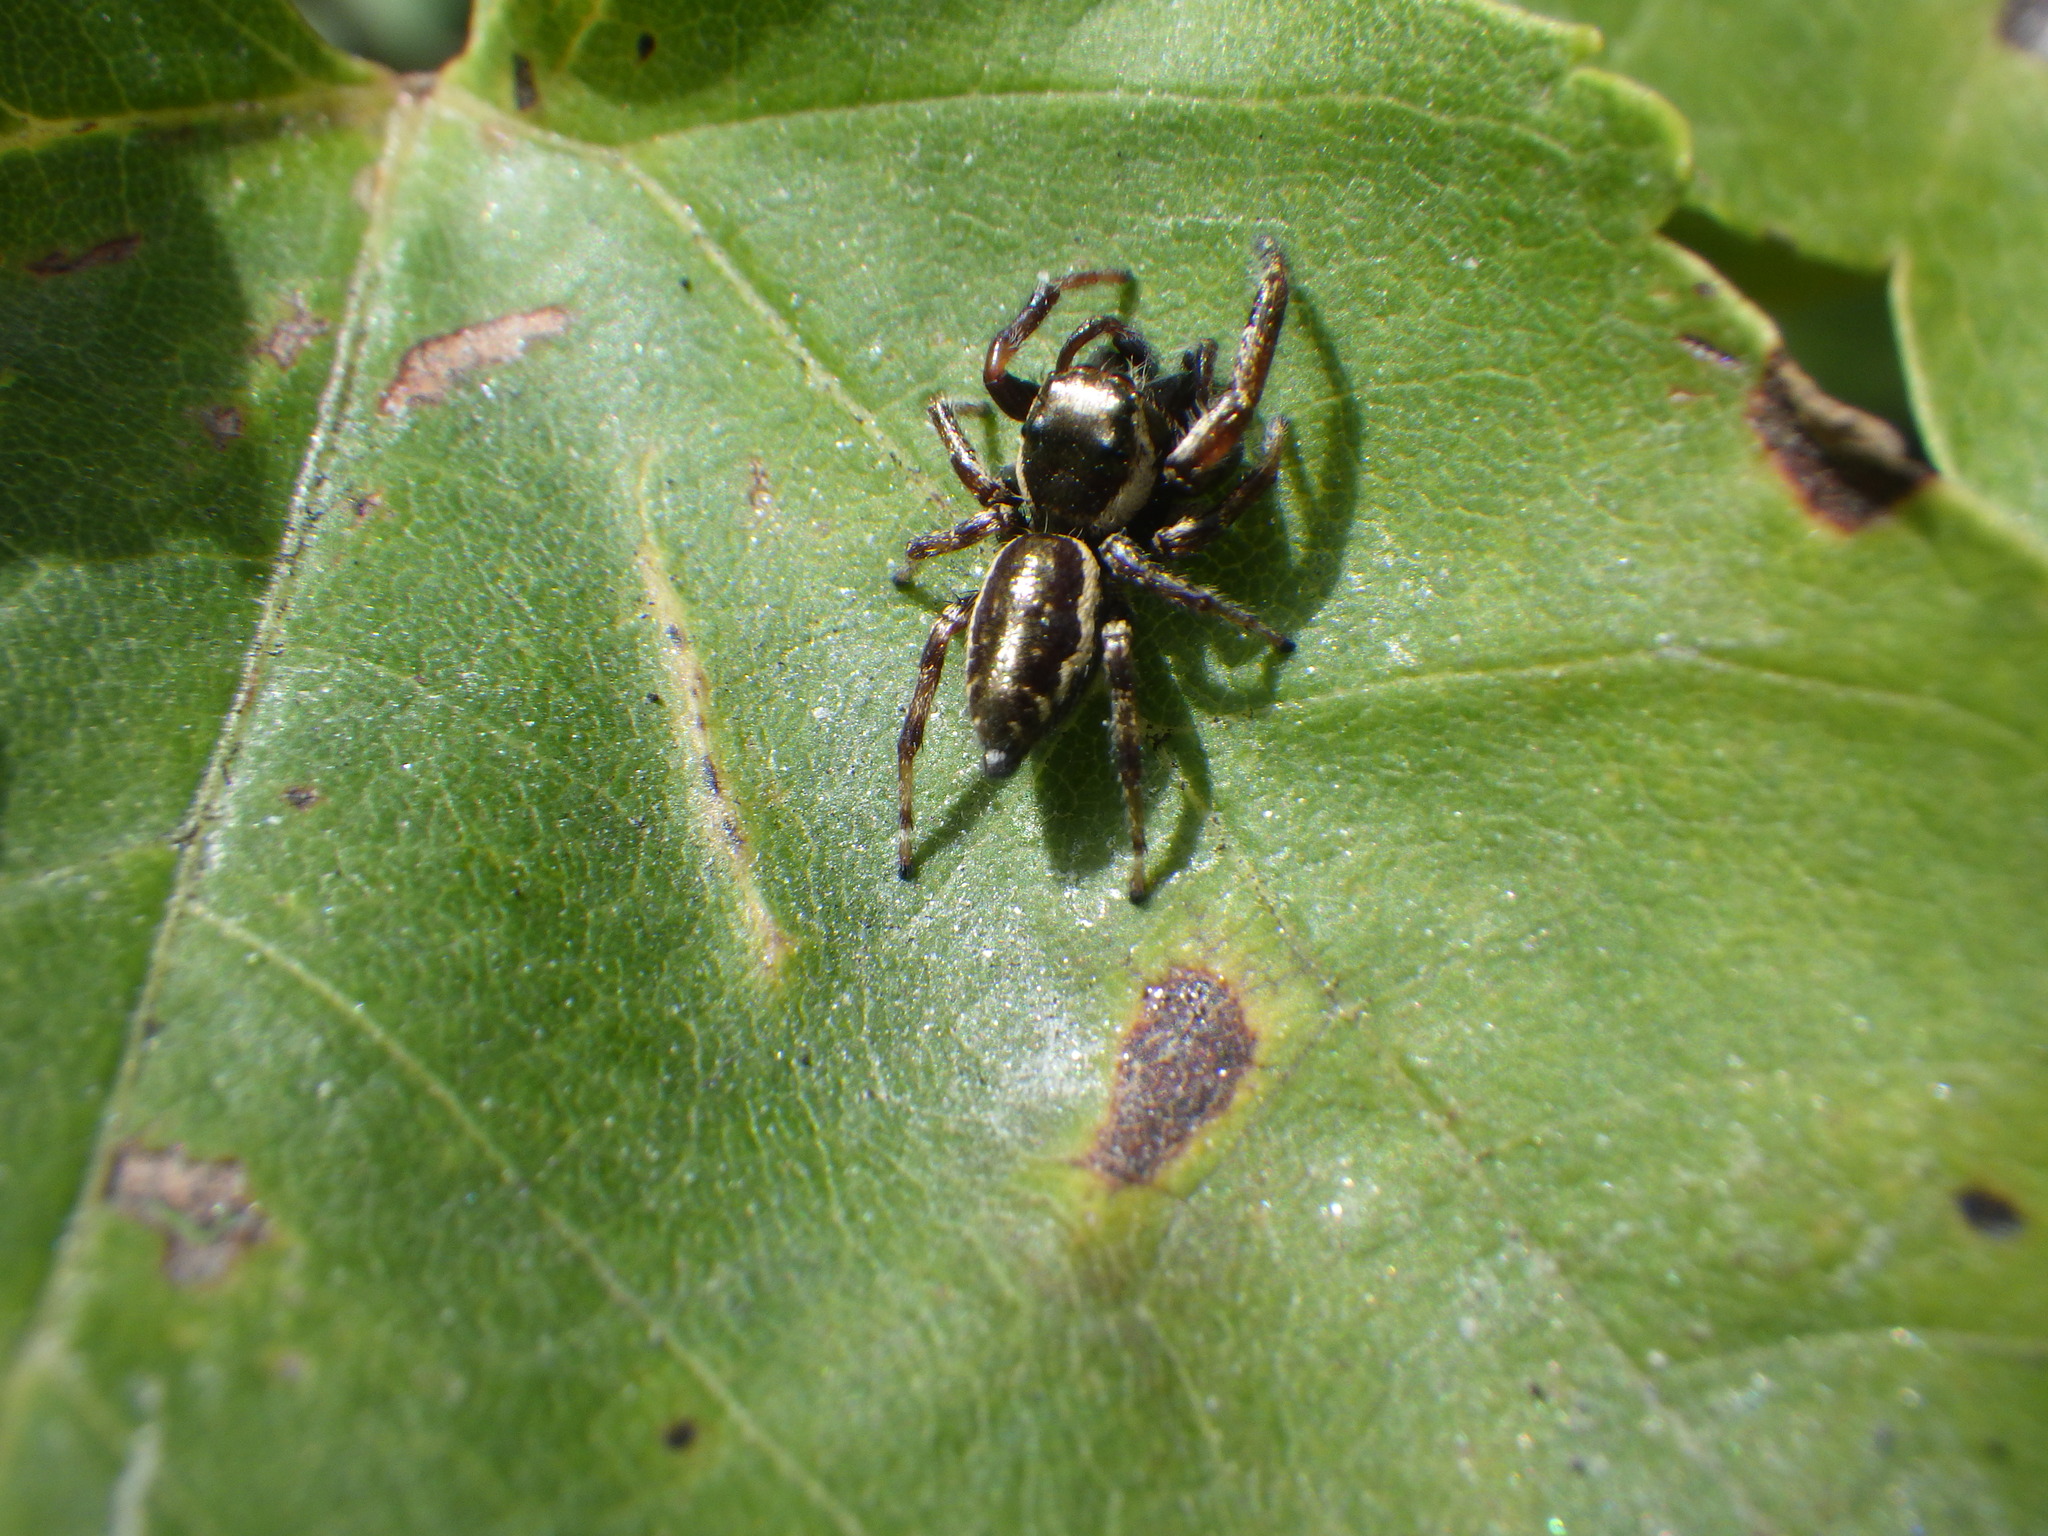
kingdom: Animalia
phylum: Arthropoda
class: Arachnida
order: Araneae
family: Salticidae
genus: Eris
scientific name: Eris militaris
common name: Bronze jumper
